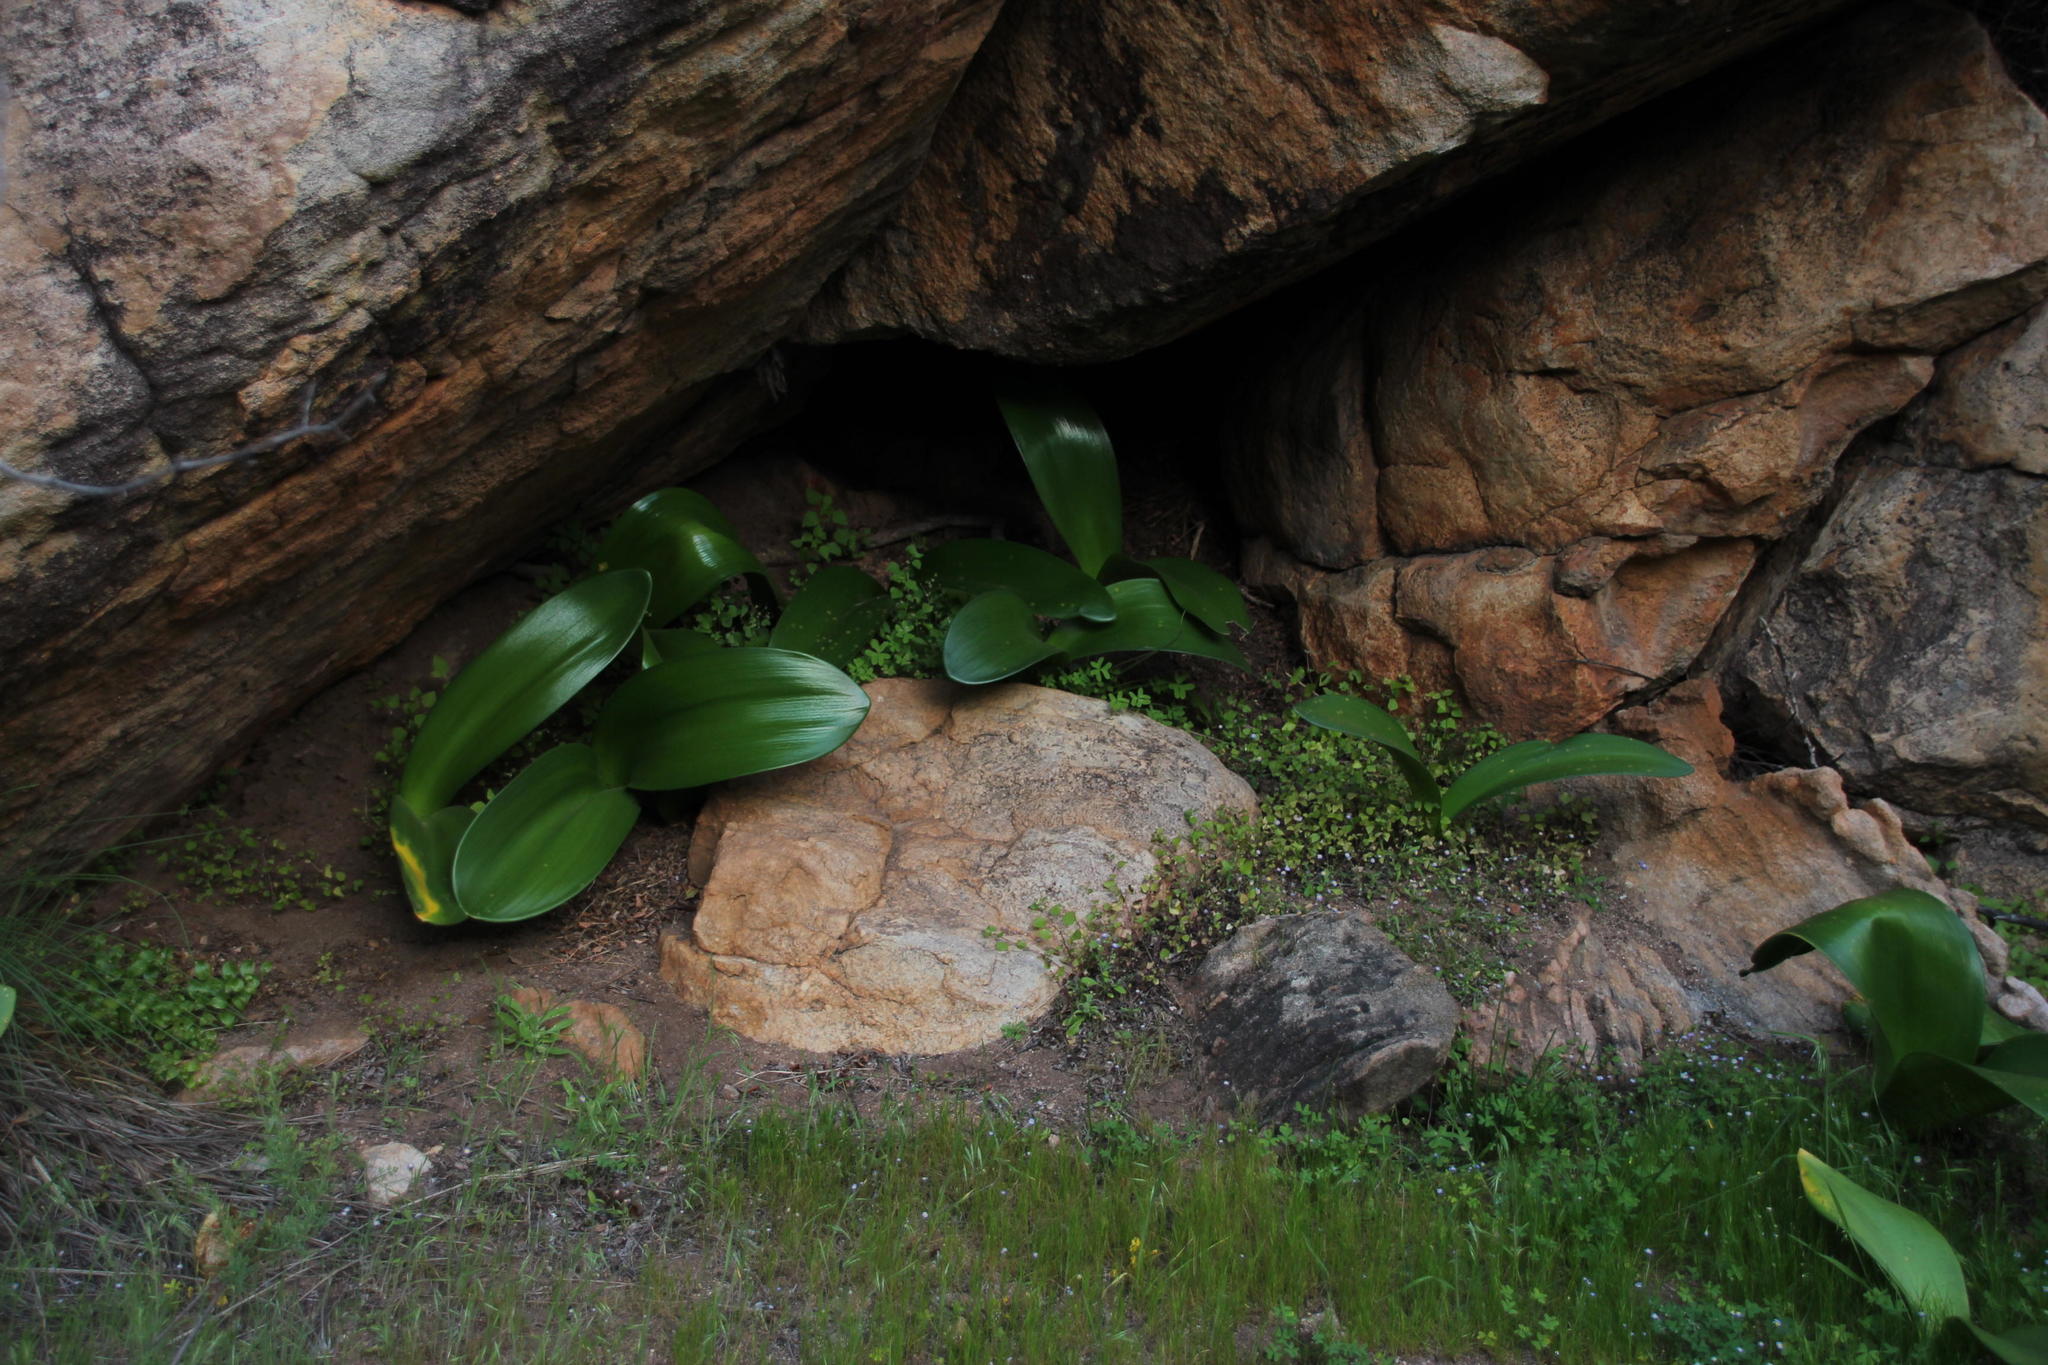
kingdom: Plantae
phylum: Tracheophyta
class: Liliopsida
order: Asparagales
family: Amaryllidaceae
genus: Haemanthus
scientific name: Haemanthus coccineus
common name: Cape-tulip
